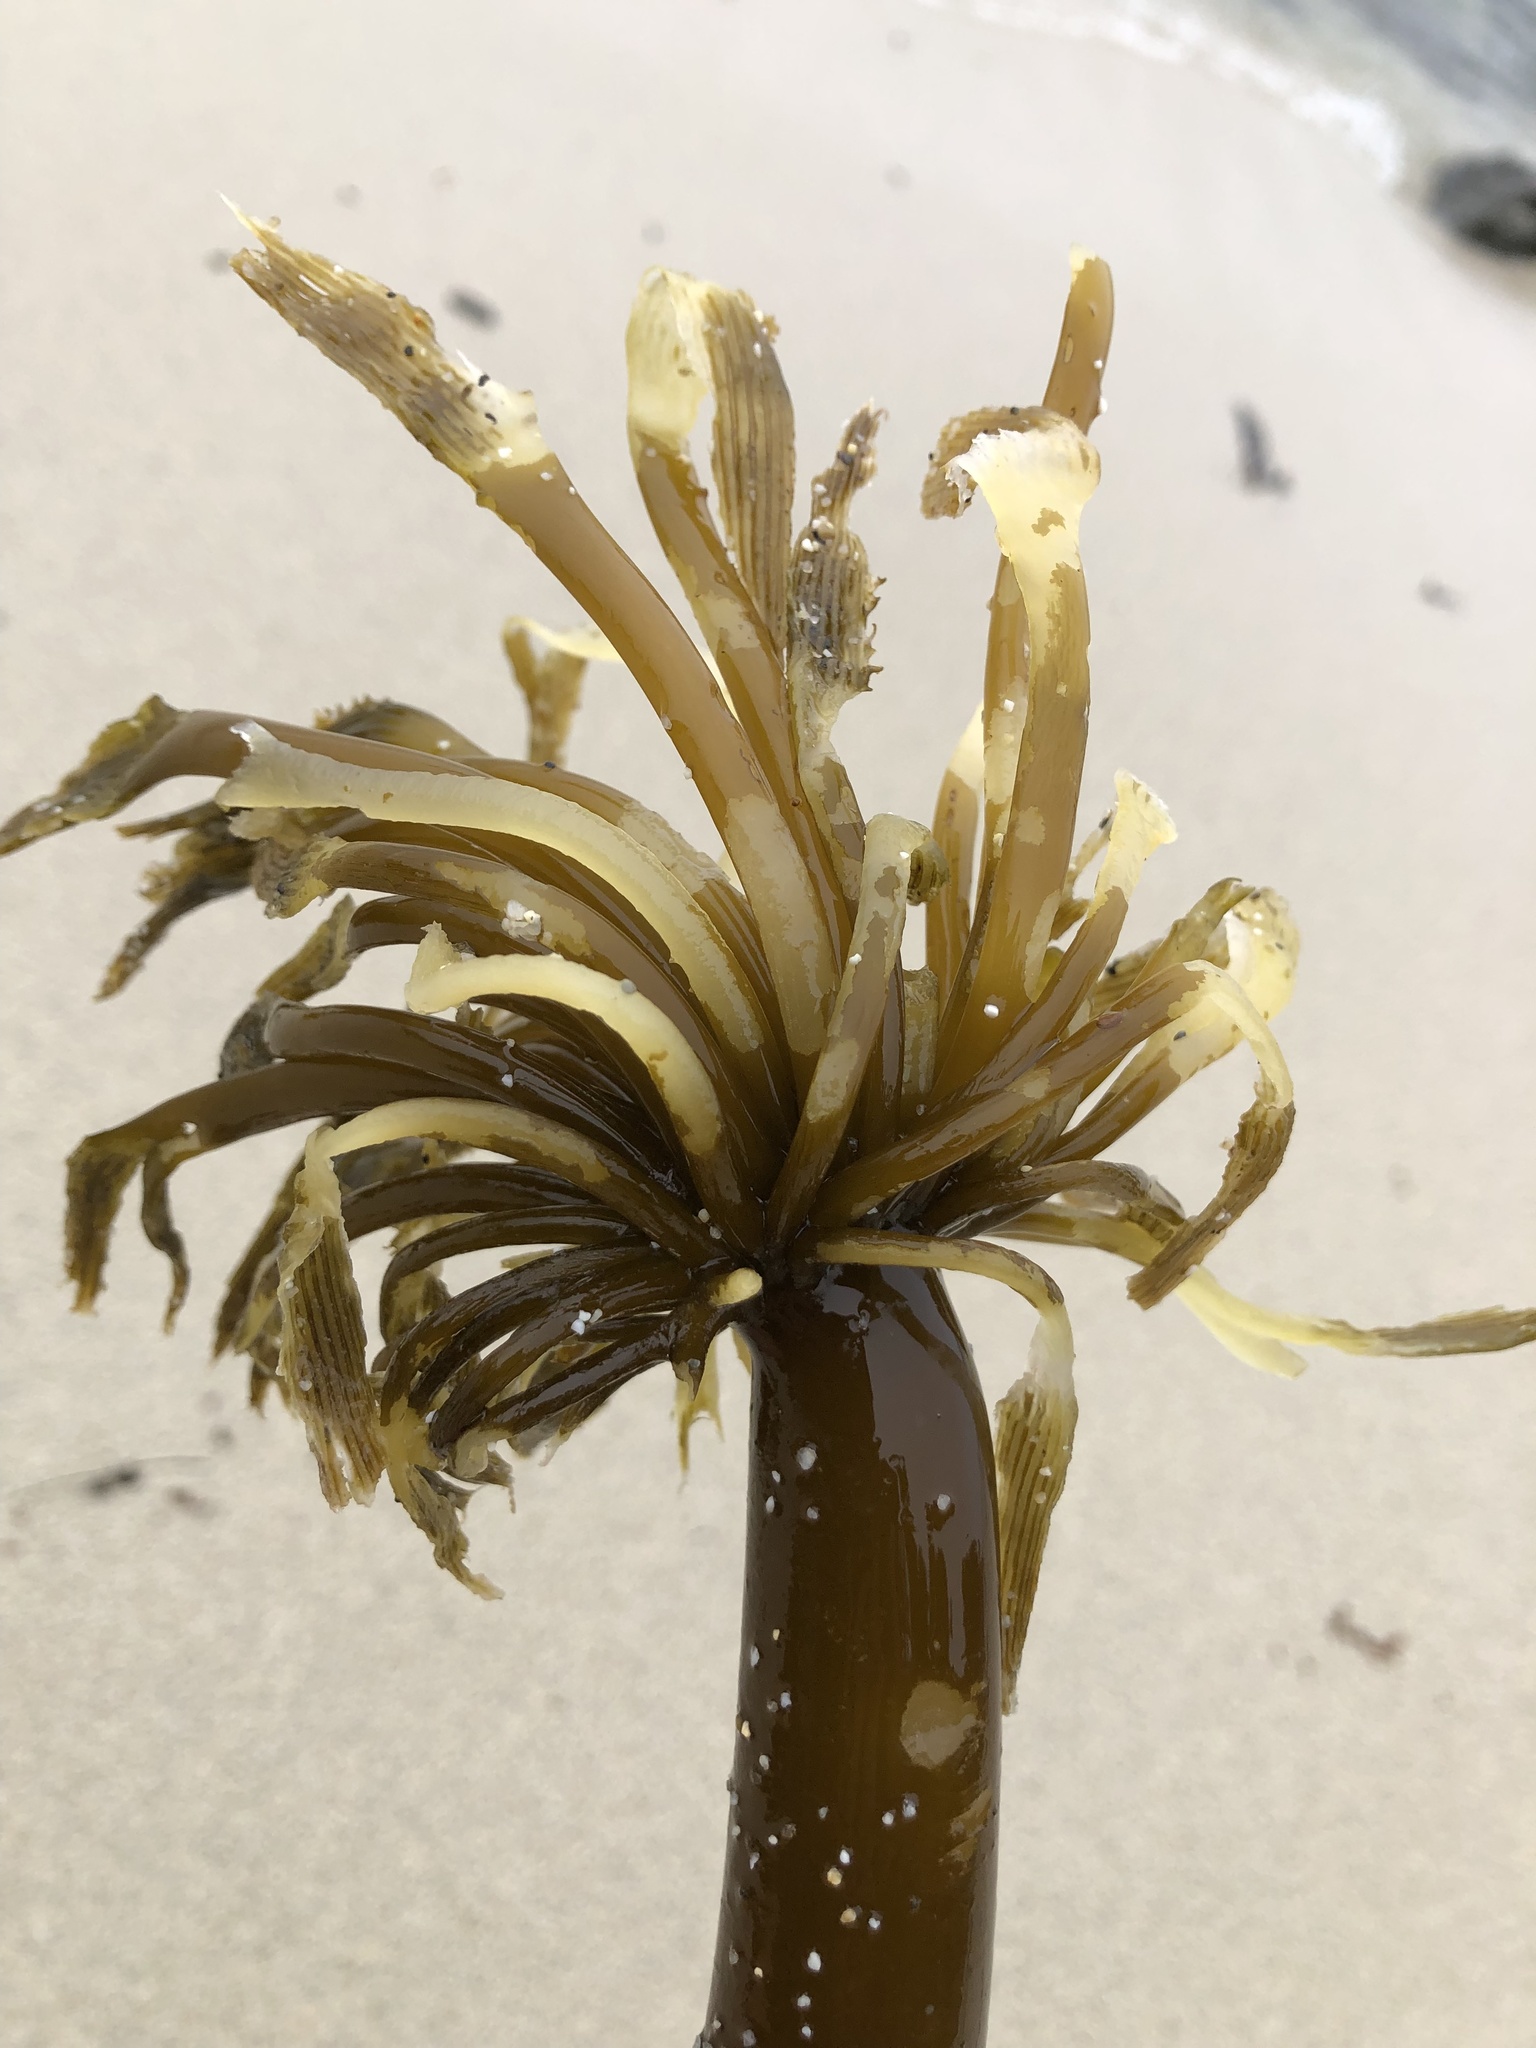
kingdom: Chromista
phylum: Ochrophyta
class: Phaeophyceae
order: Laminariales
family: Laminariaceae
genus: Postelsia
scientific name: Postelsia palmiformis
